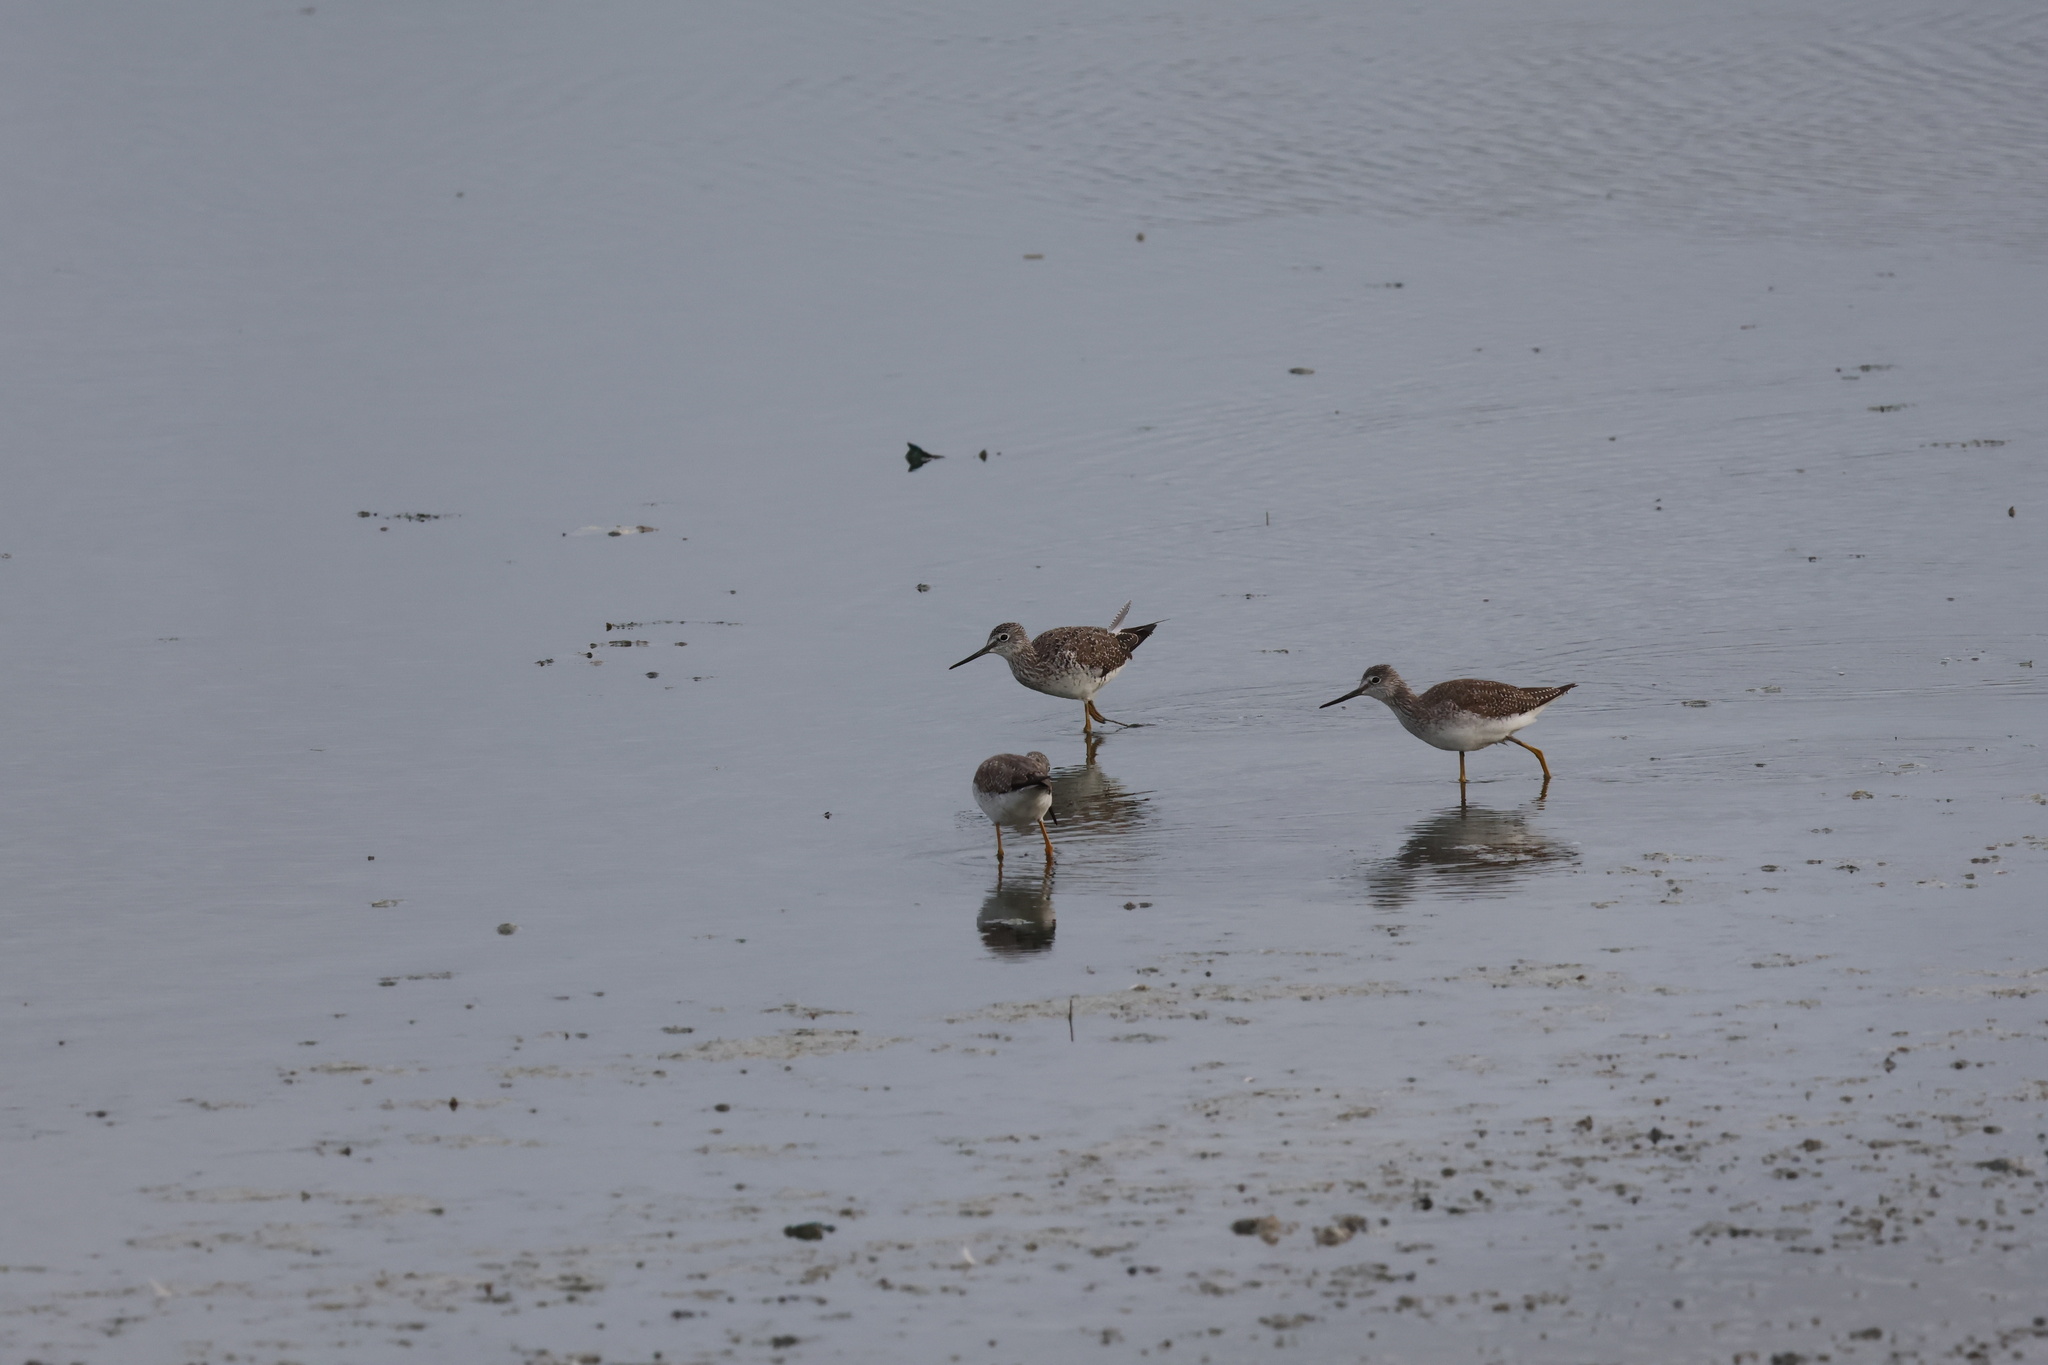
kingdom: Animalia
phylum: Chordata
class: Aves
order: Charadriiformes
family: Scolopacidae
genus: Tringa
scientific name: Tringa melanoleuca
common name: Greater yellowlegs
